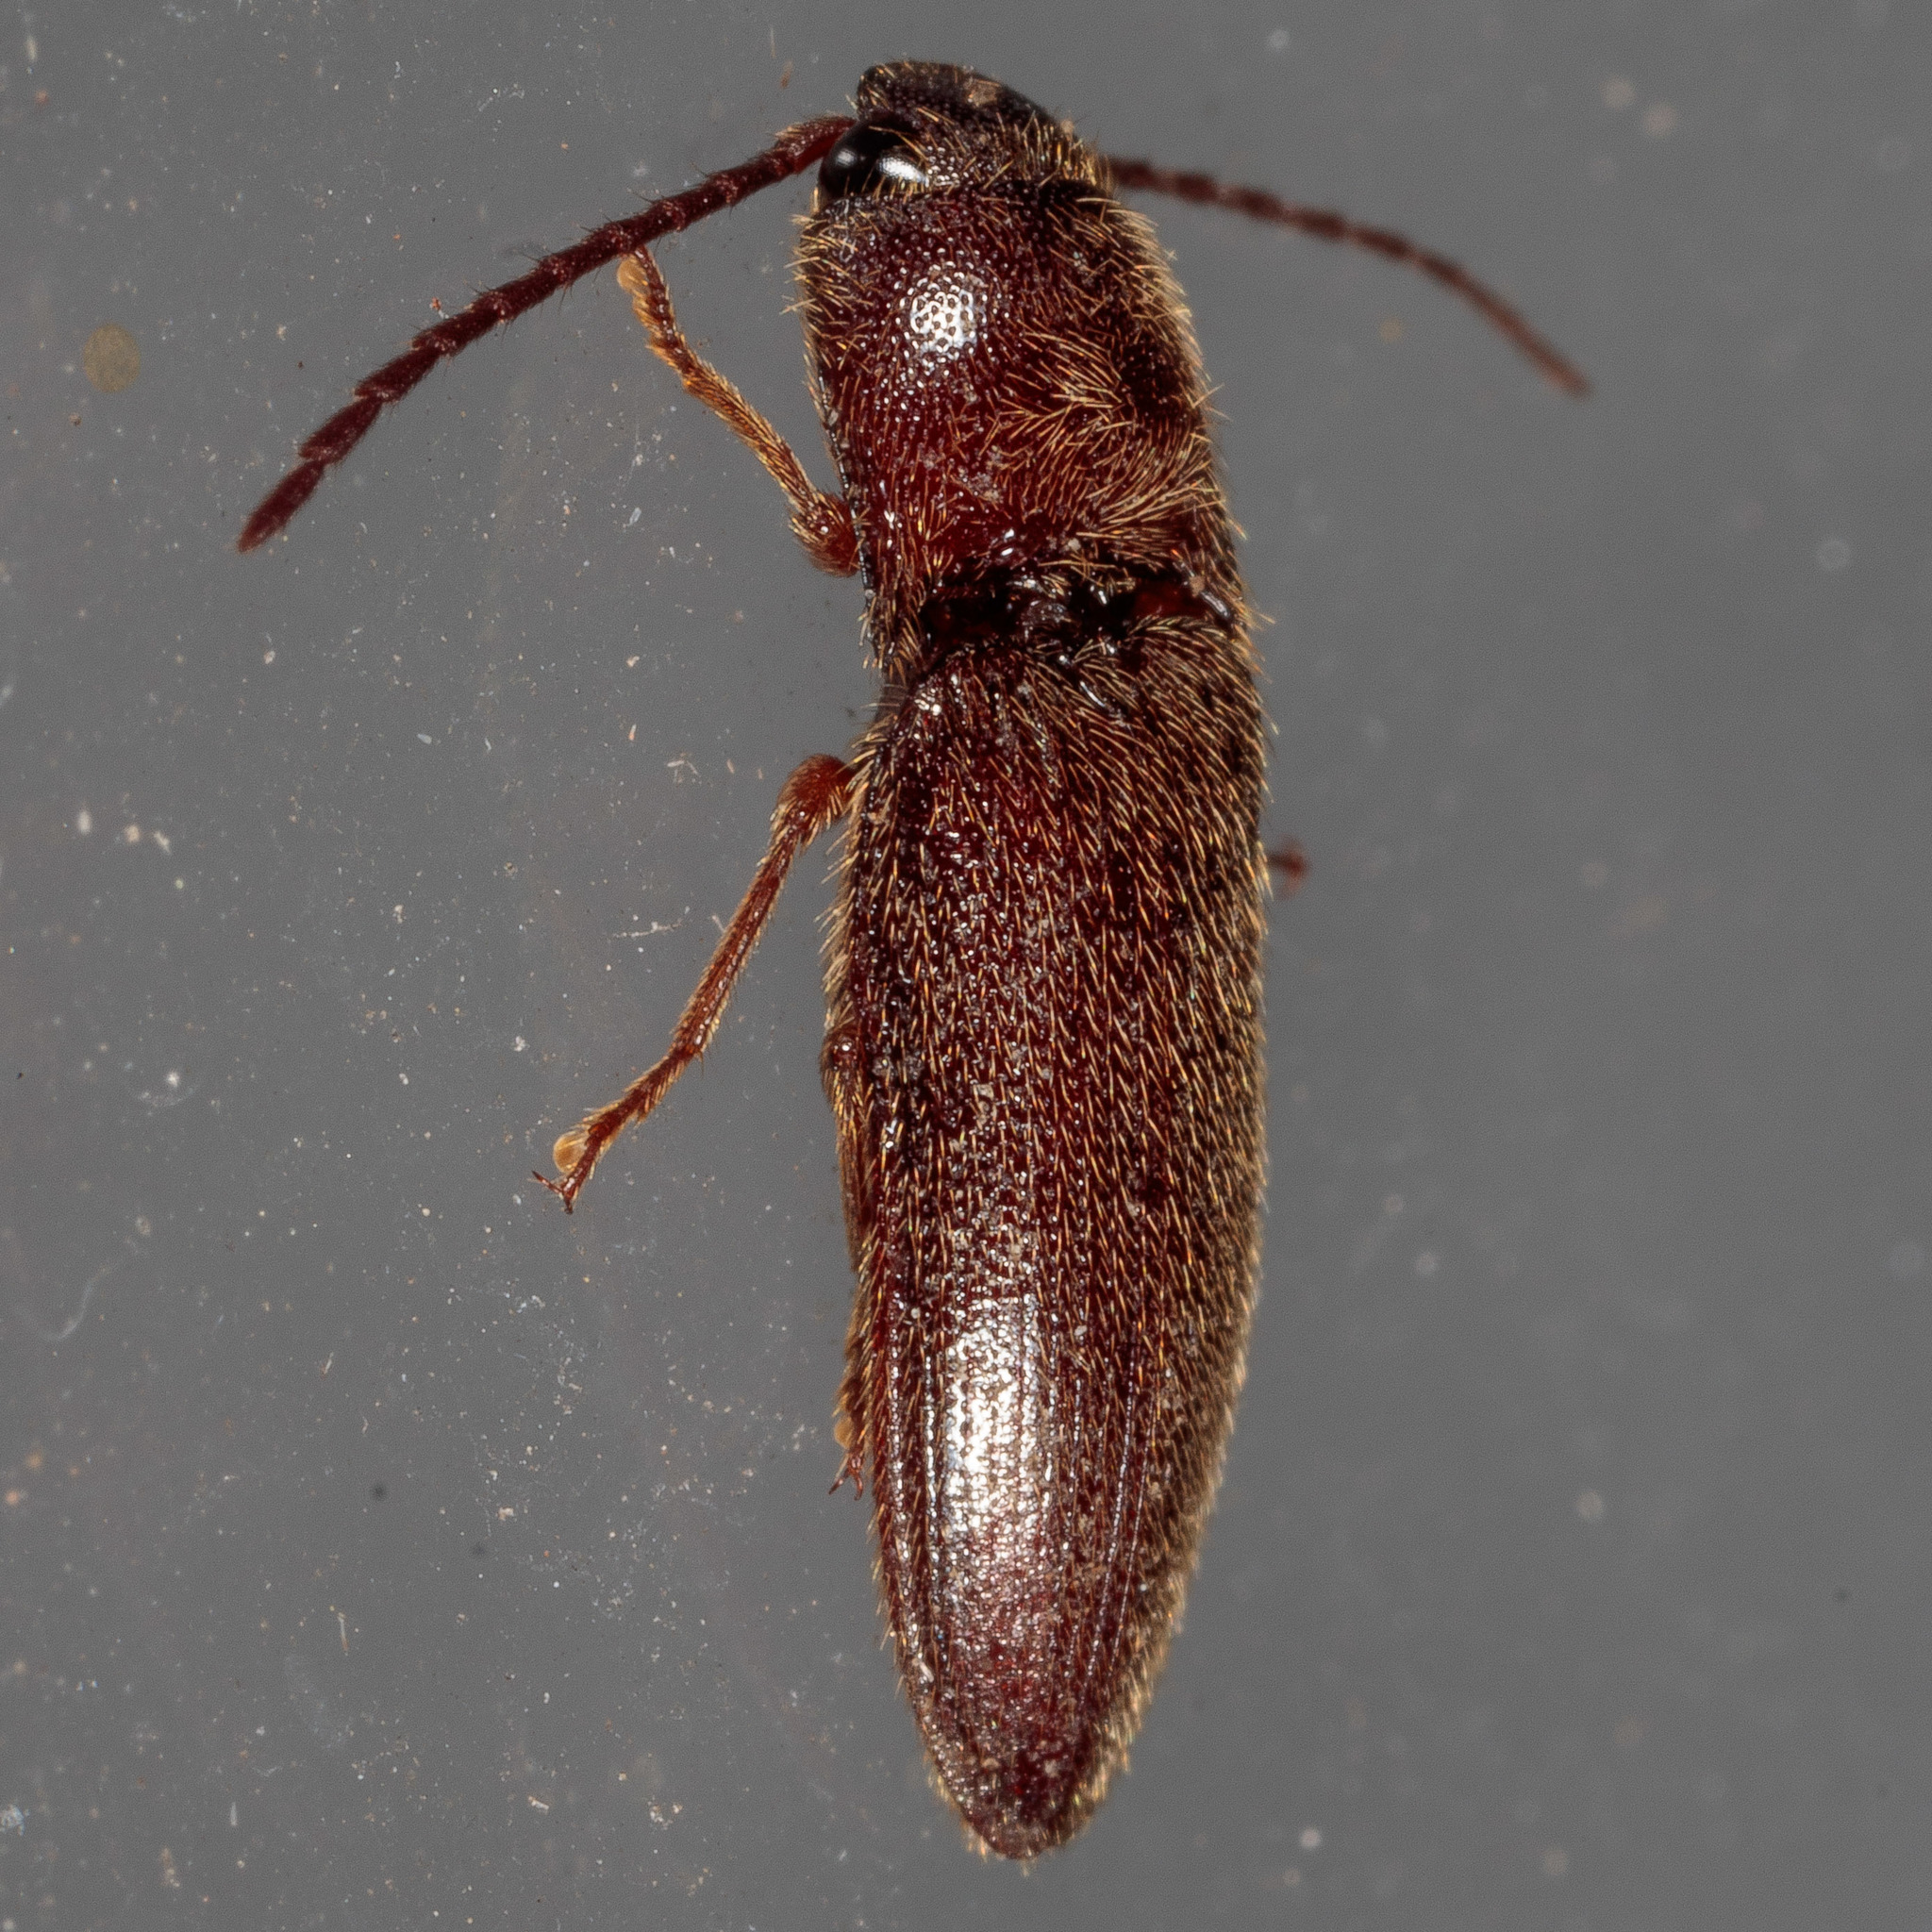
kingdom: Animalia
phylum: Arthropoda
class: Insecta
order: Coleoptera
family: Elateridae
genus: Dipropus
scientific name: Dipropus
